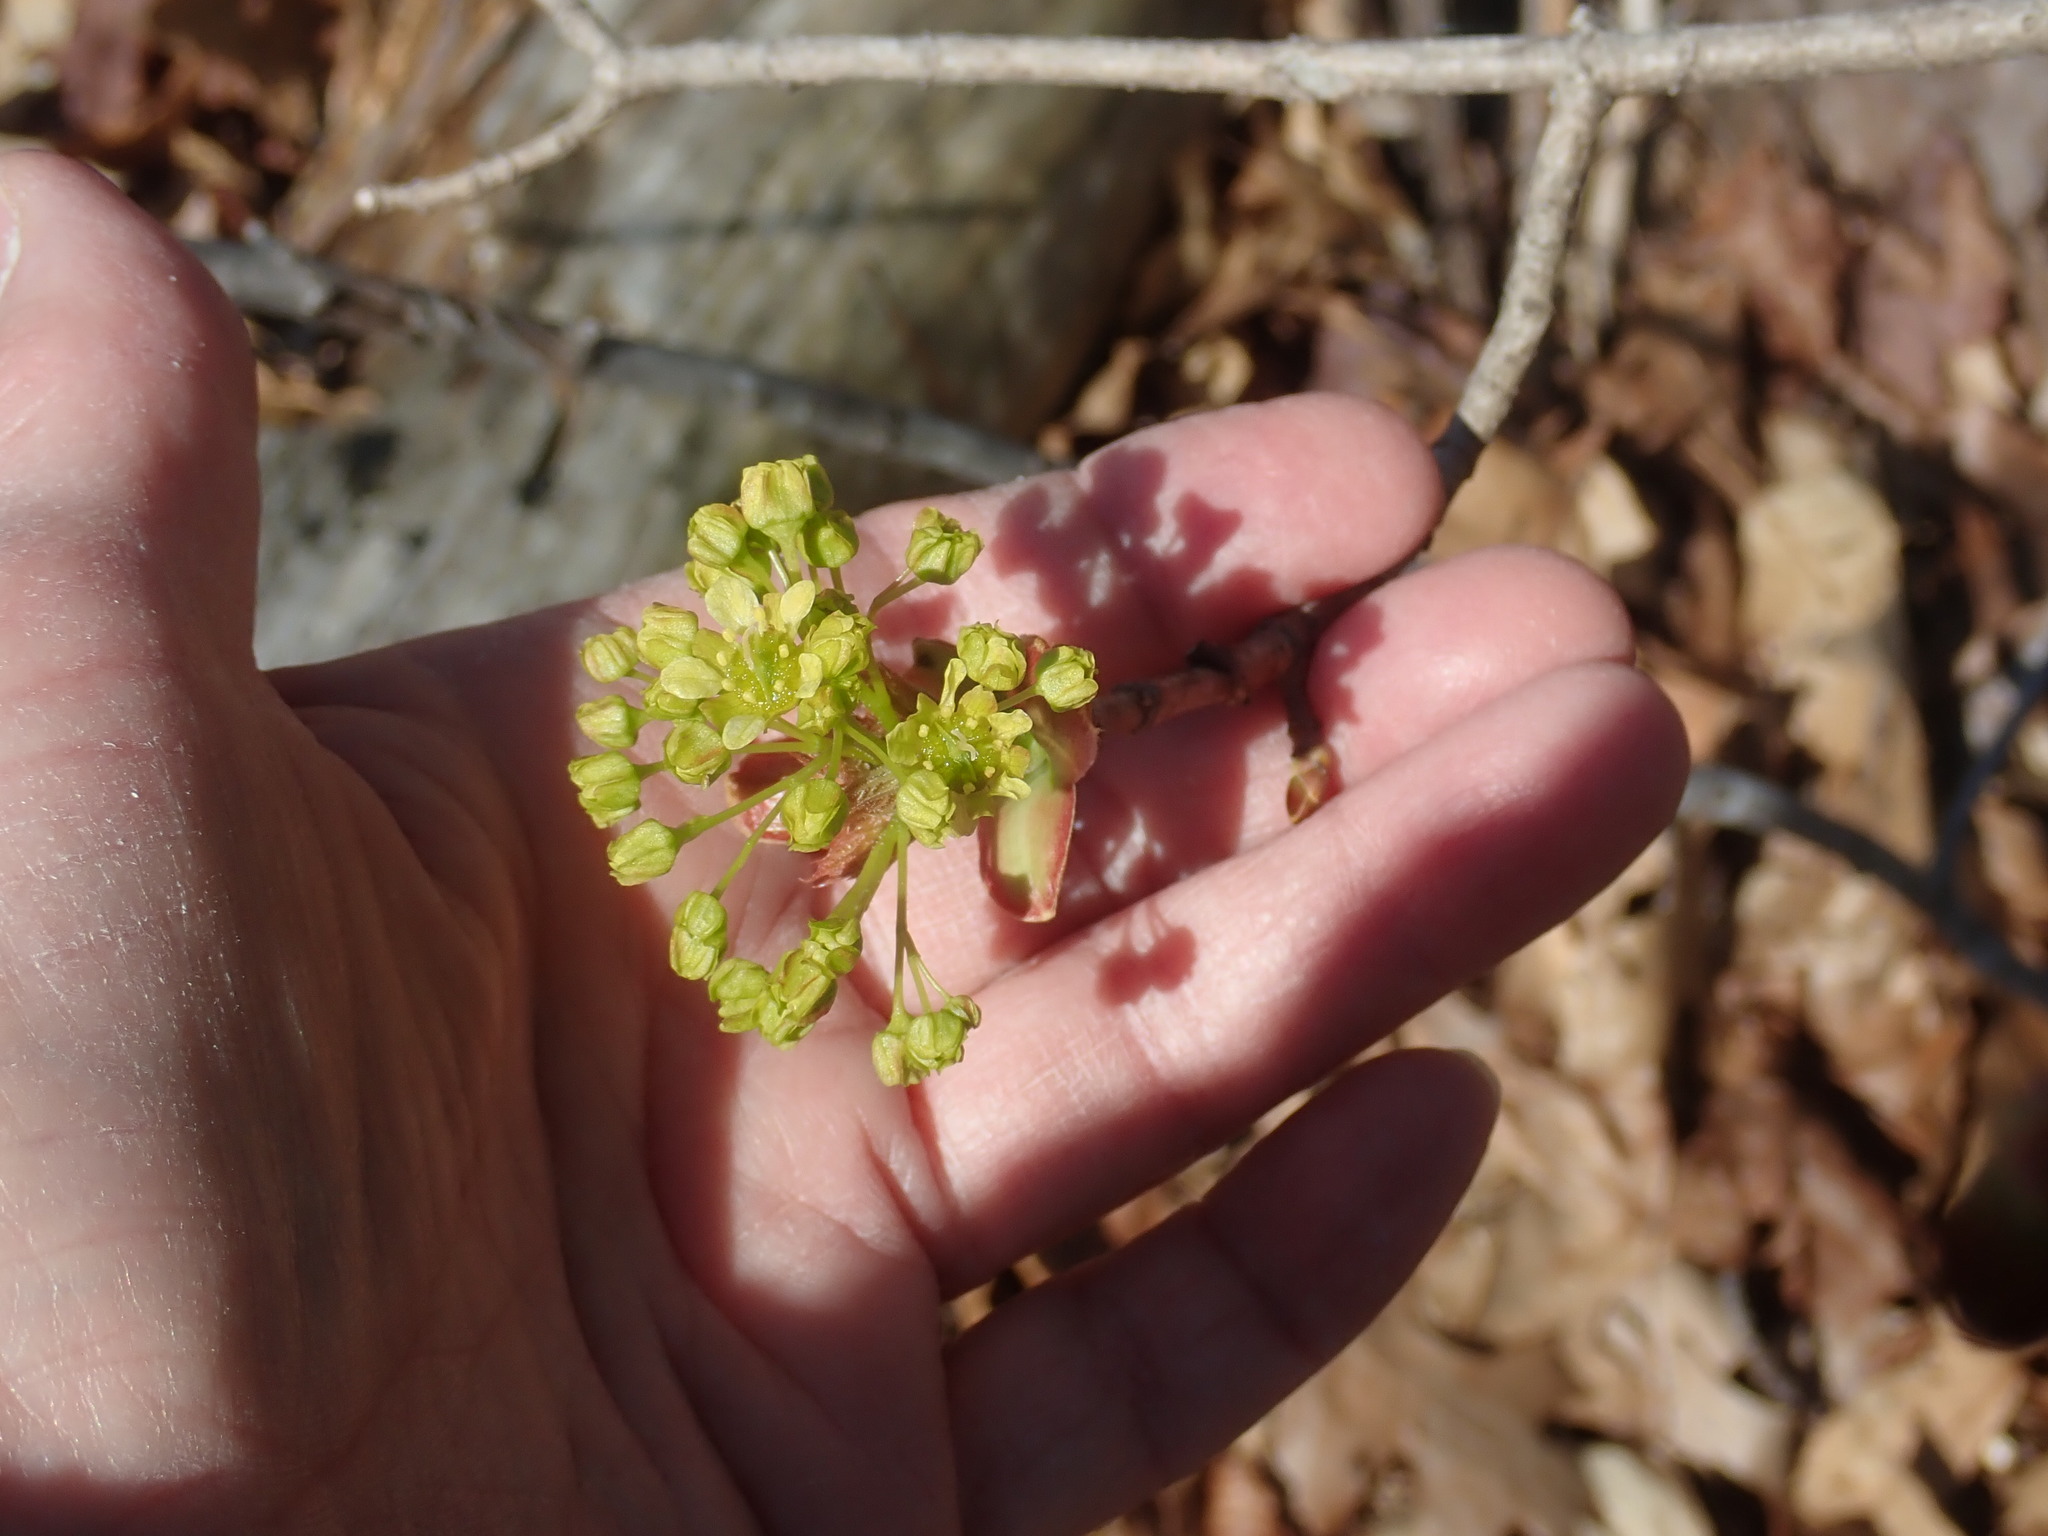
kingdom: Plantae
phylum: Tracheophyta
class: Magnoliopsida
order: Sapindales
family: Sapindaceae
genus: Acer
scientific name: Acer platanoides
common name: Norway maple
